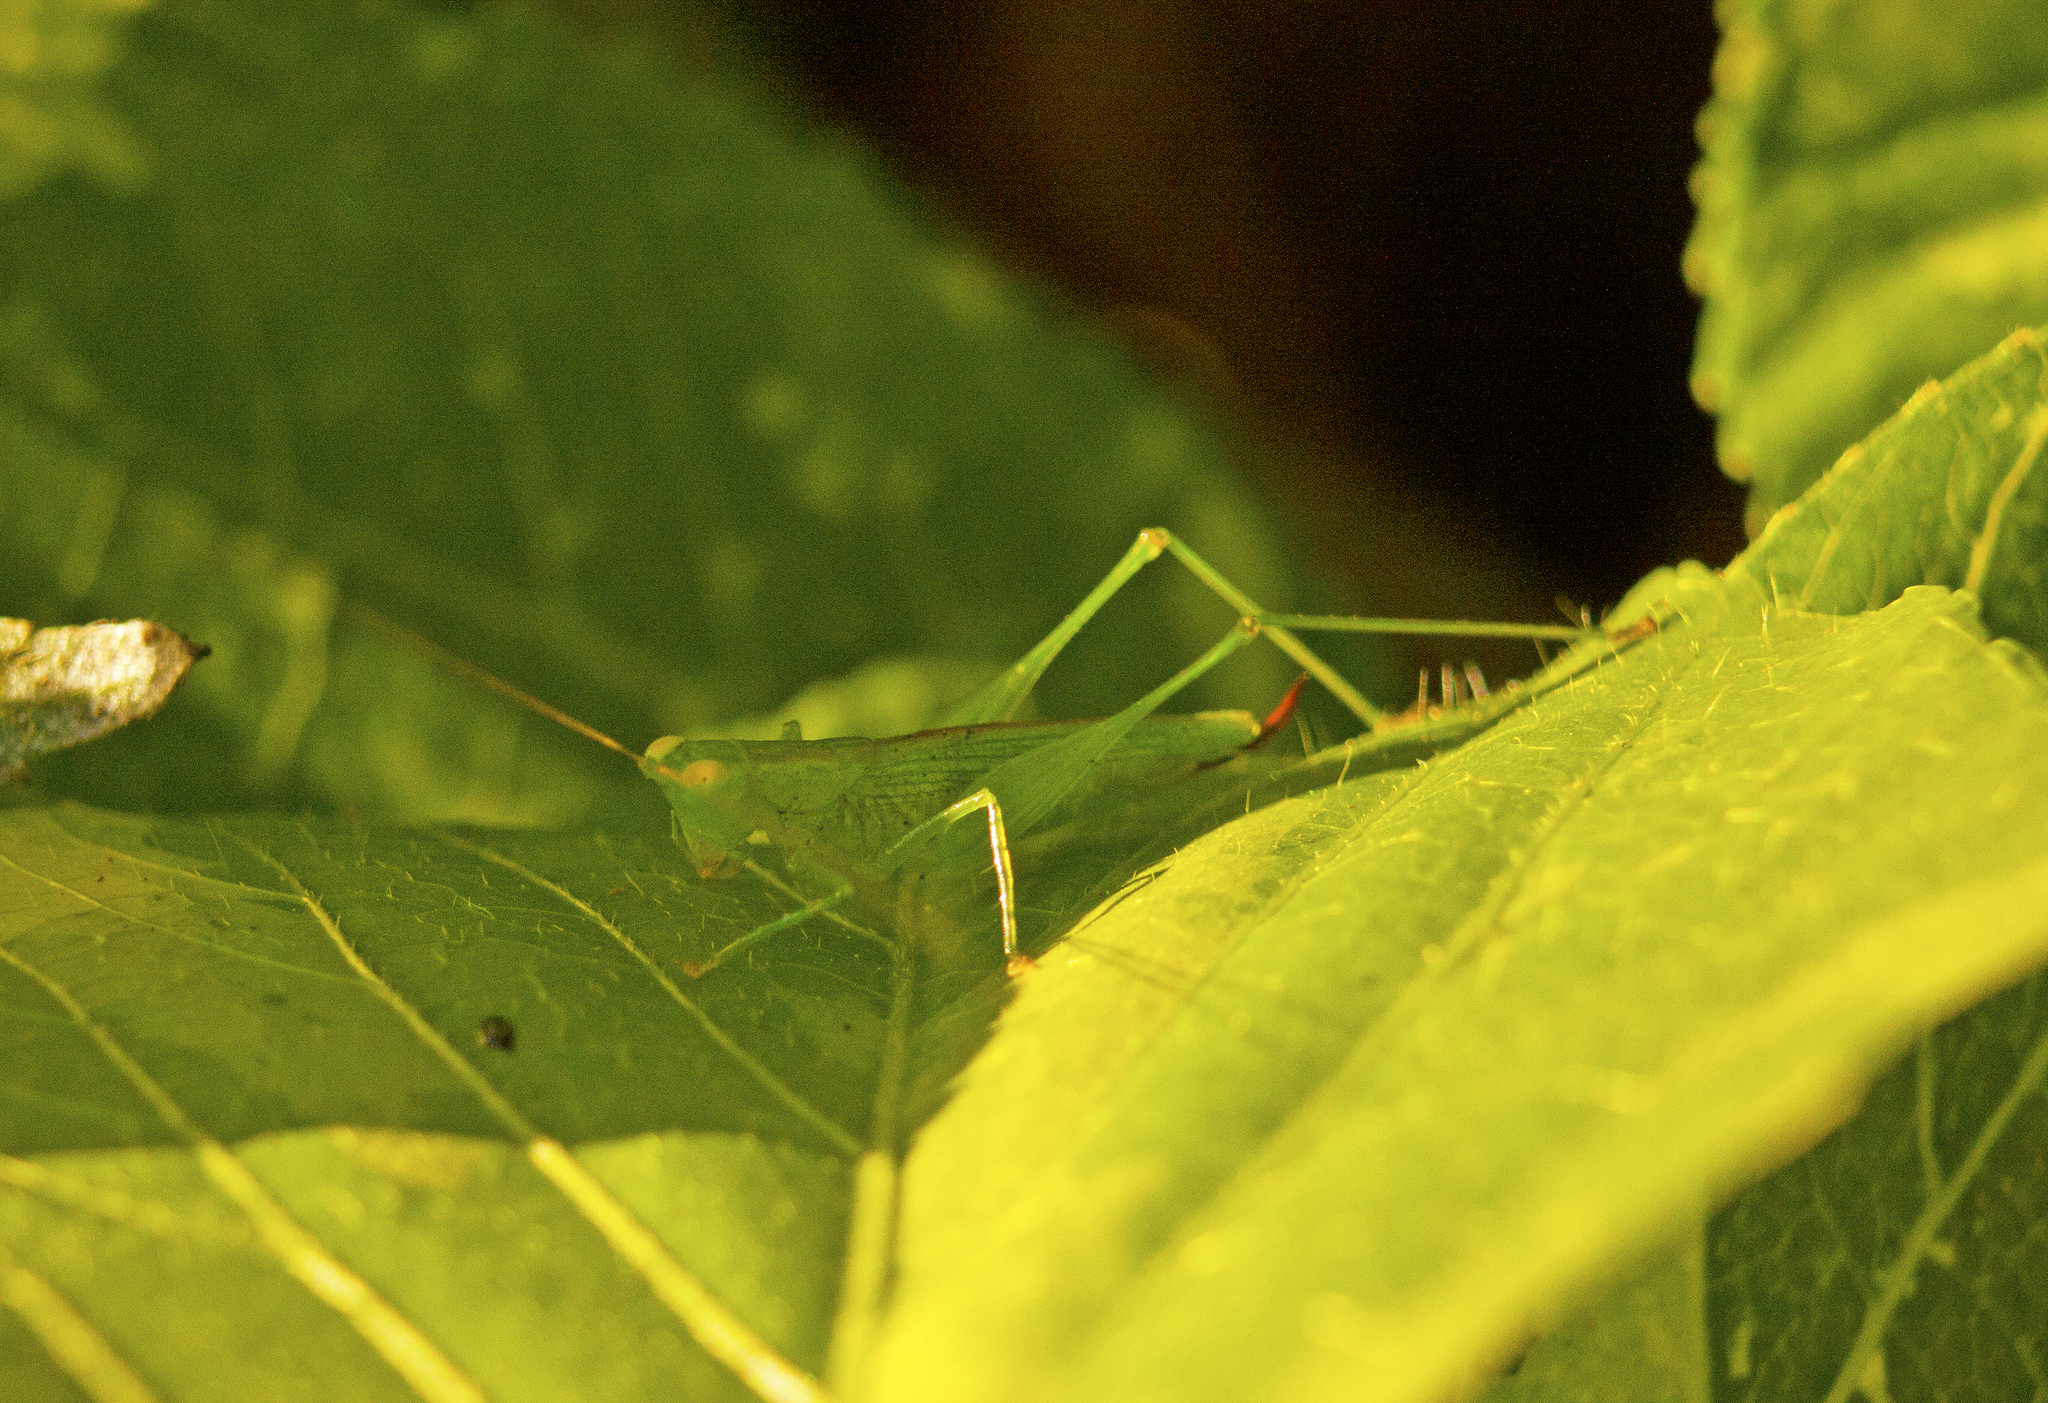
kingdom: Animalia
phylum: Arthropoda
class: Insecta
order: Orthoptera
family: Tettigoniidae
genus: Austrophlugis
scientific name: Austrophlugis debaari
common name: Debaar's swayer
